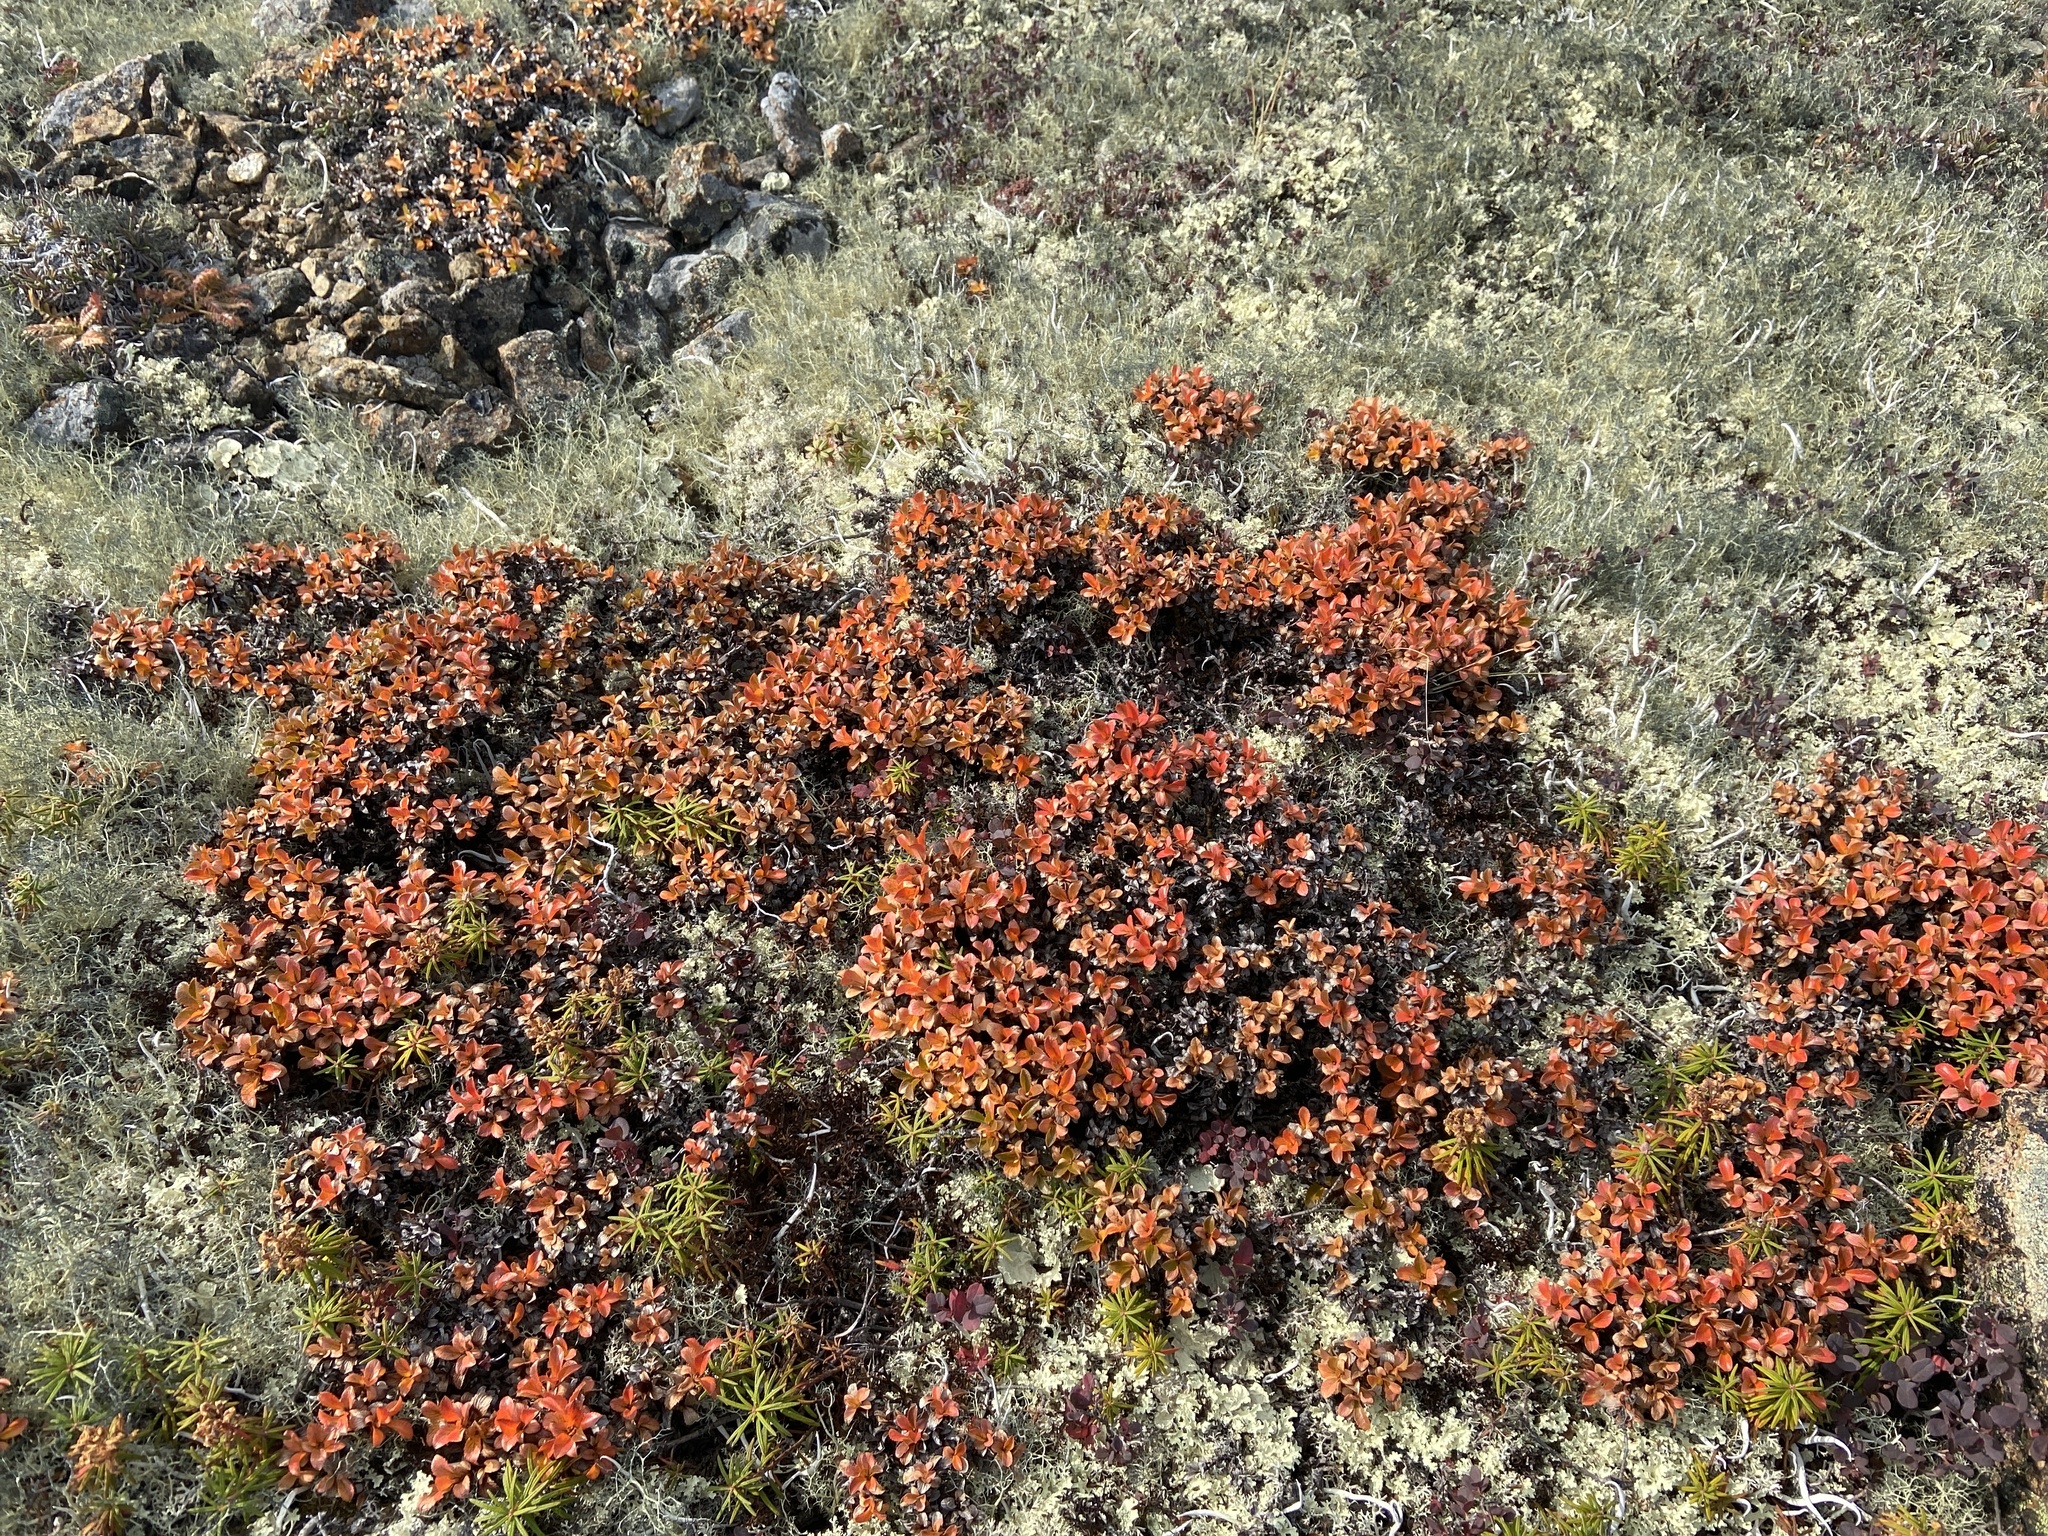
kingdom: Plantae
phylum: Tracheophyta
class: Magnoliopsida
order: Malpighiales
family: Salicaceae
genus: Salix
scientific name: Salix tschuktschorum
